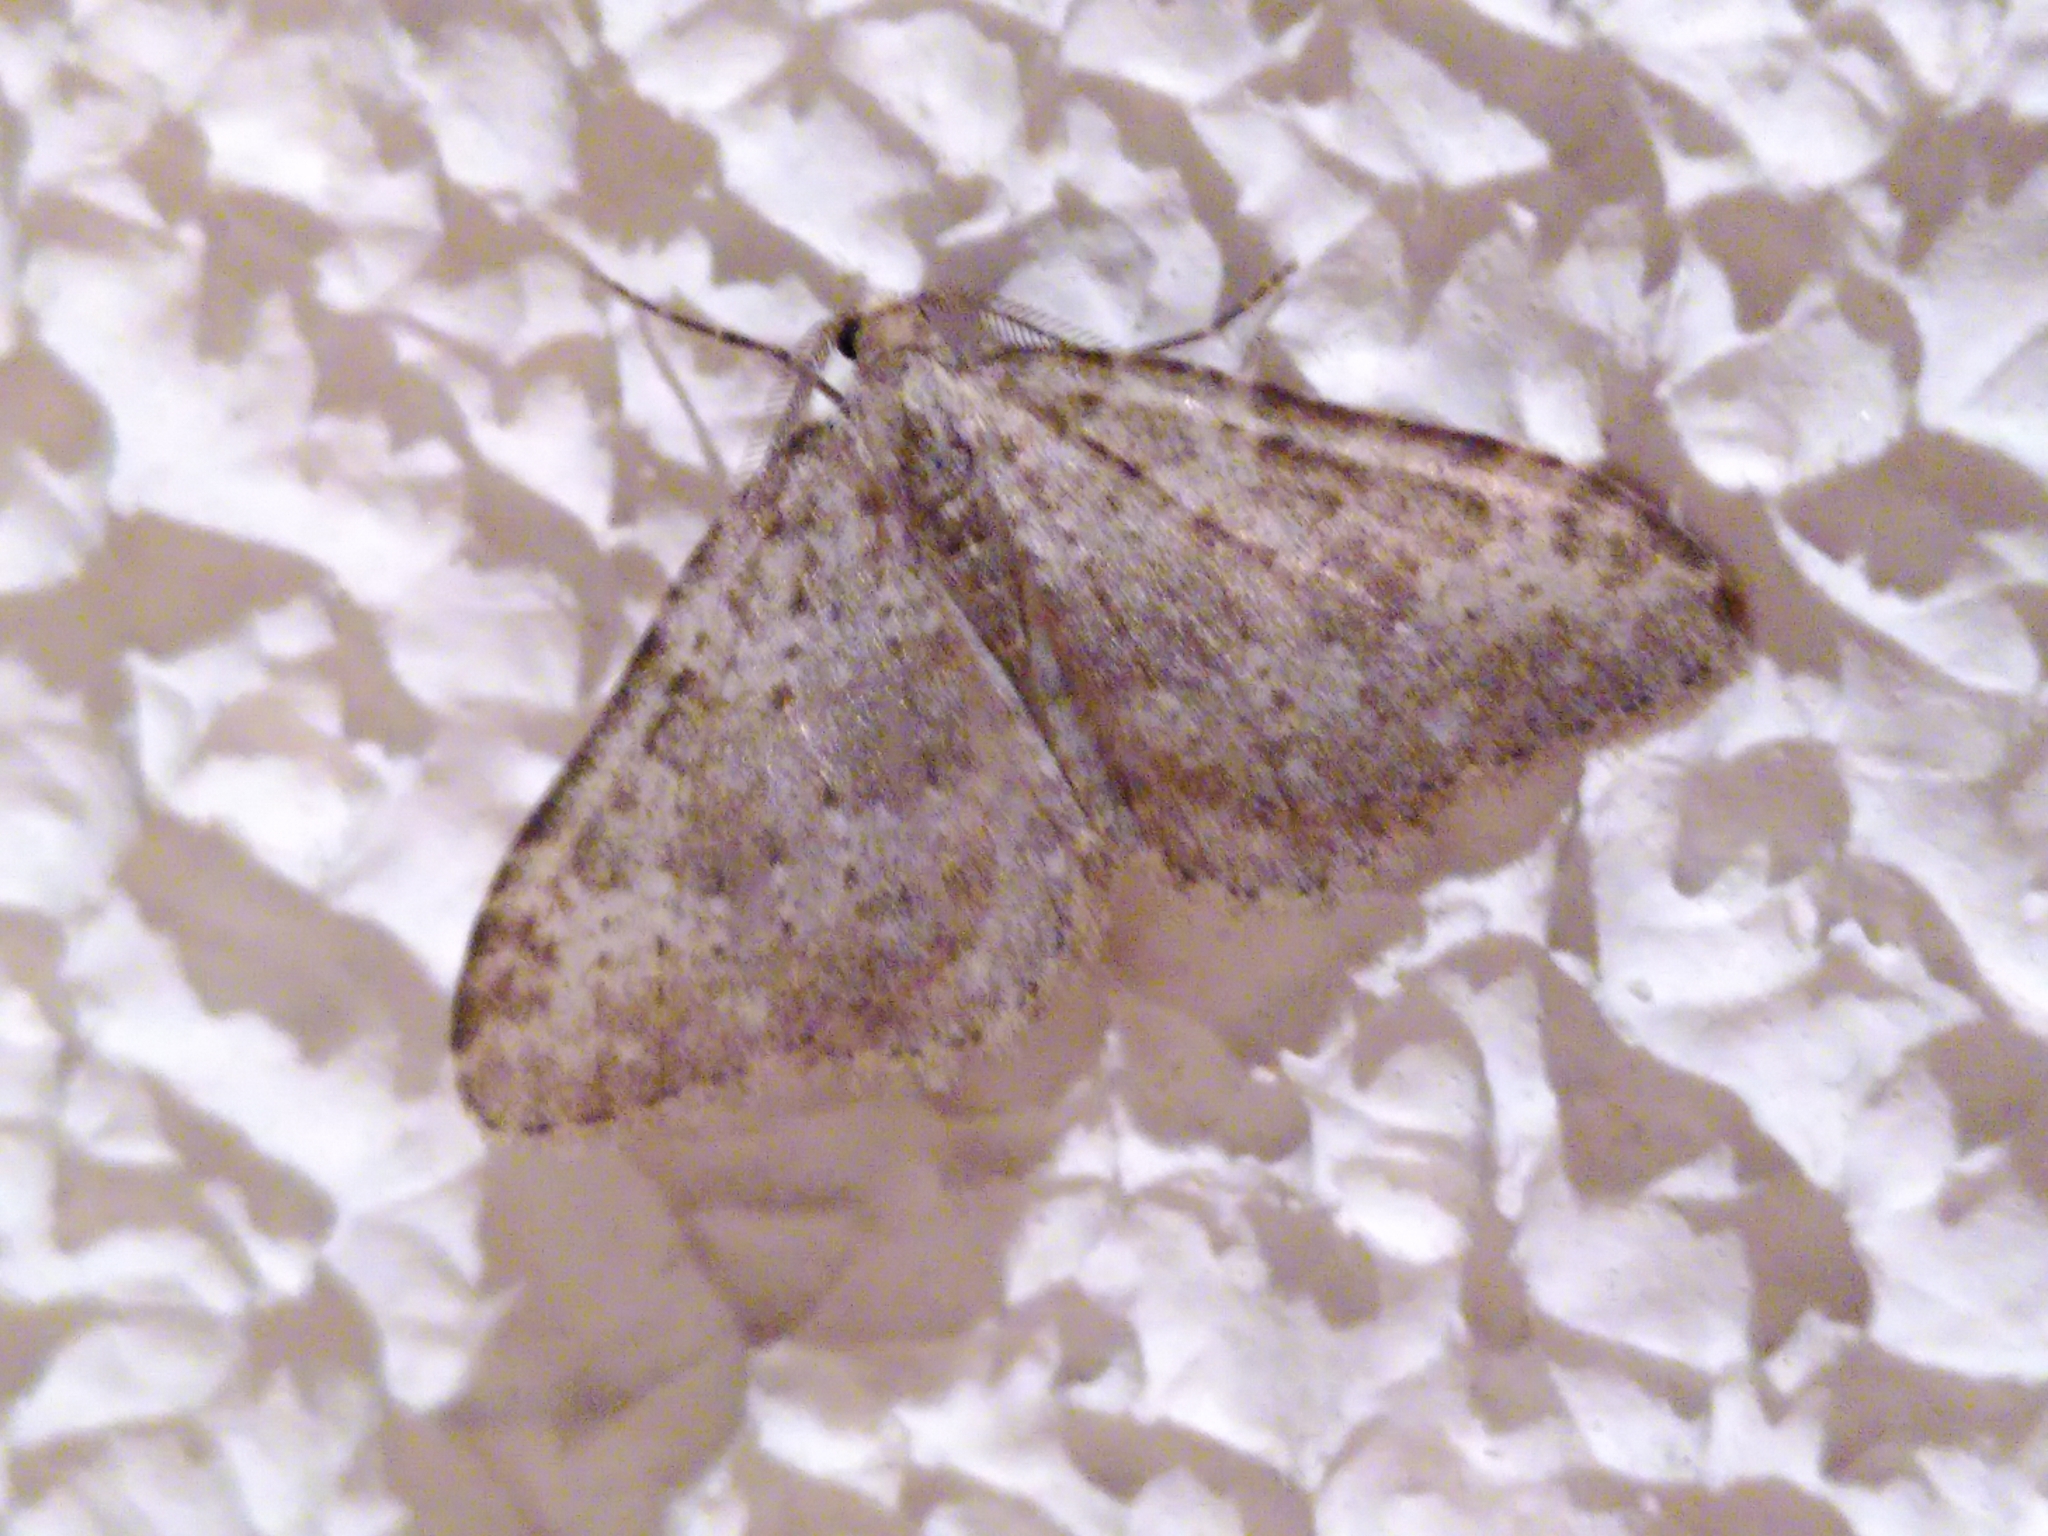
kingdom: Animalia
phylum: Arthropoda
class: Insecta
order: Lepidoptera
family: Geometridae
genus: Nebula
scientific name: Nebula salicata
